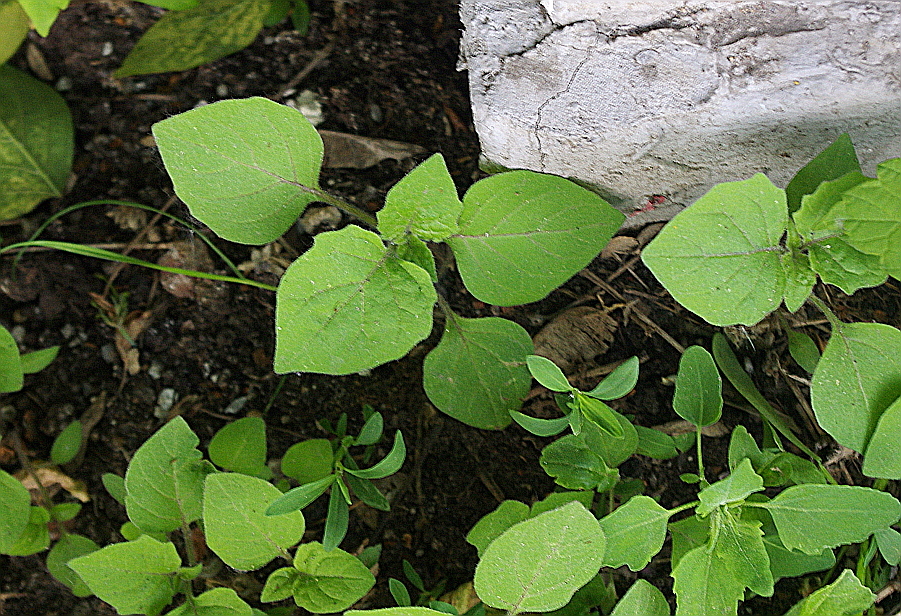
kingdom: Plantae
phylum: Tracheophyta
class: Magnoliopsida
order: Solanales
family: Solanaceae
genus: Solanum
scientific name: Solanum nigrum
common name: Black nightshade
